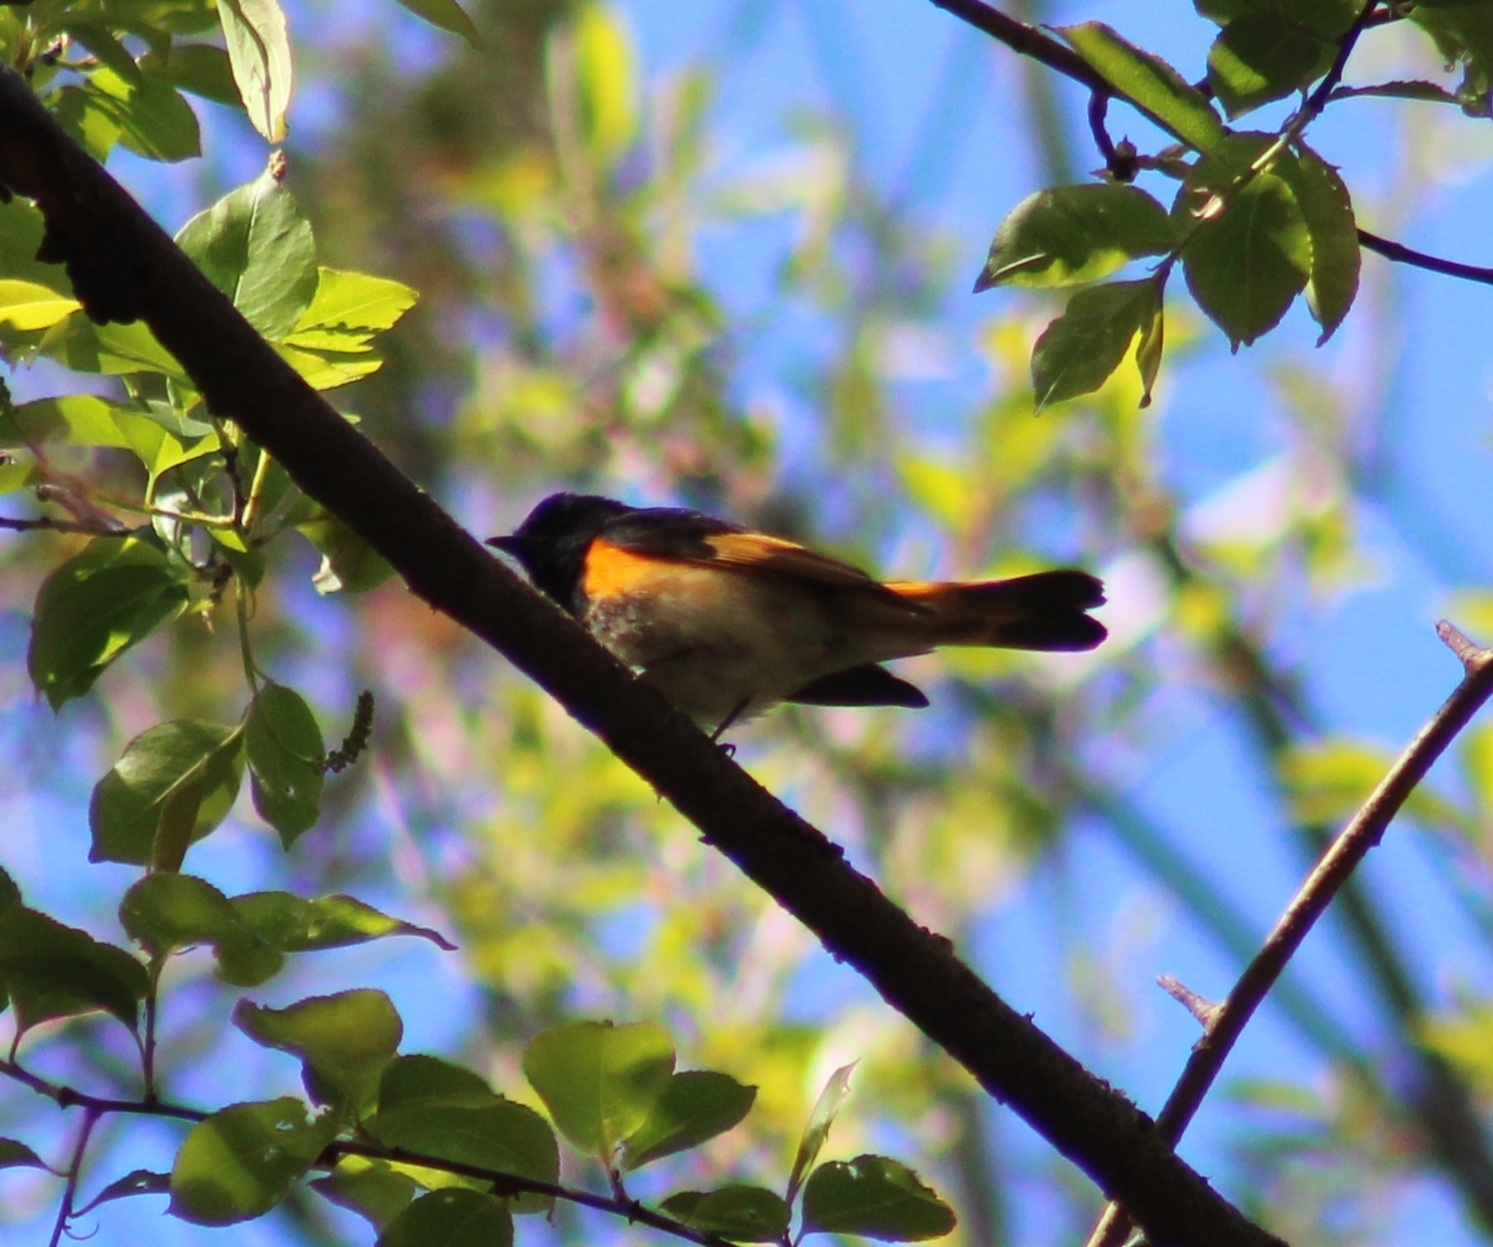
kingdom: Animalia
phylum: Chordata
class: Aves
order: Passeriformes
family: Parulidae
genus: Setophaga
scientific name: Setophaga ruticilla
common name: American redstart
